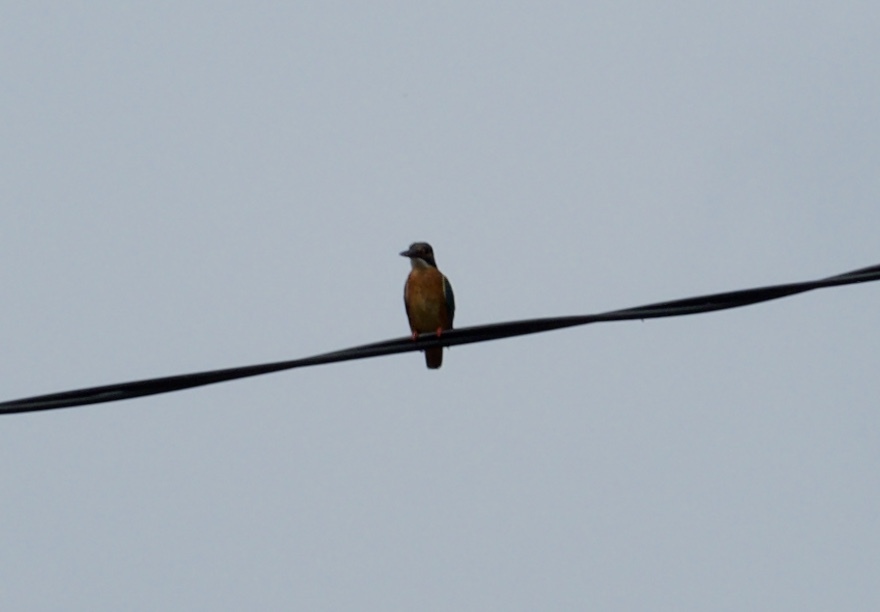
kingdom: Animalia
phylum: Chordata
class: Aves
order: Coraciiformes
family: Alcedinidae
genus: Alcedo
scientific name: Alcedo atthis
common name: Common kingfisher
